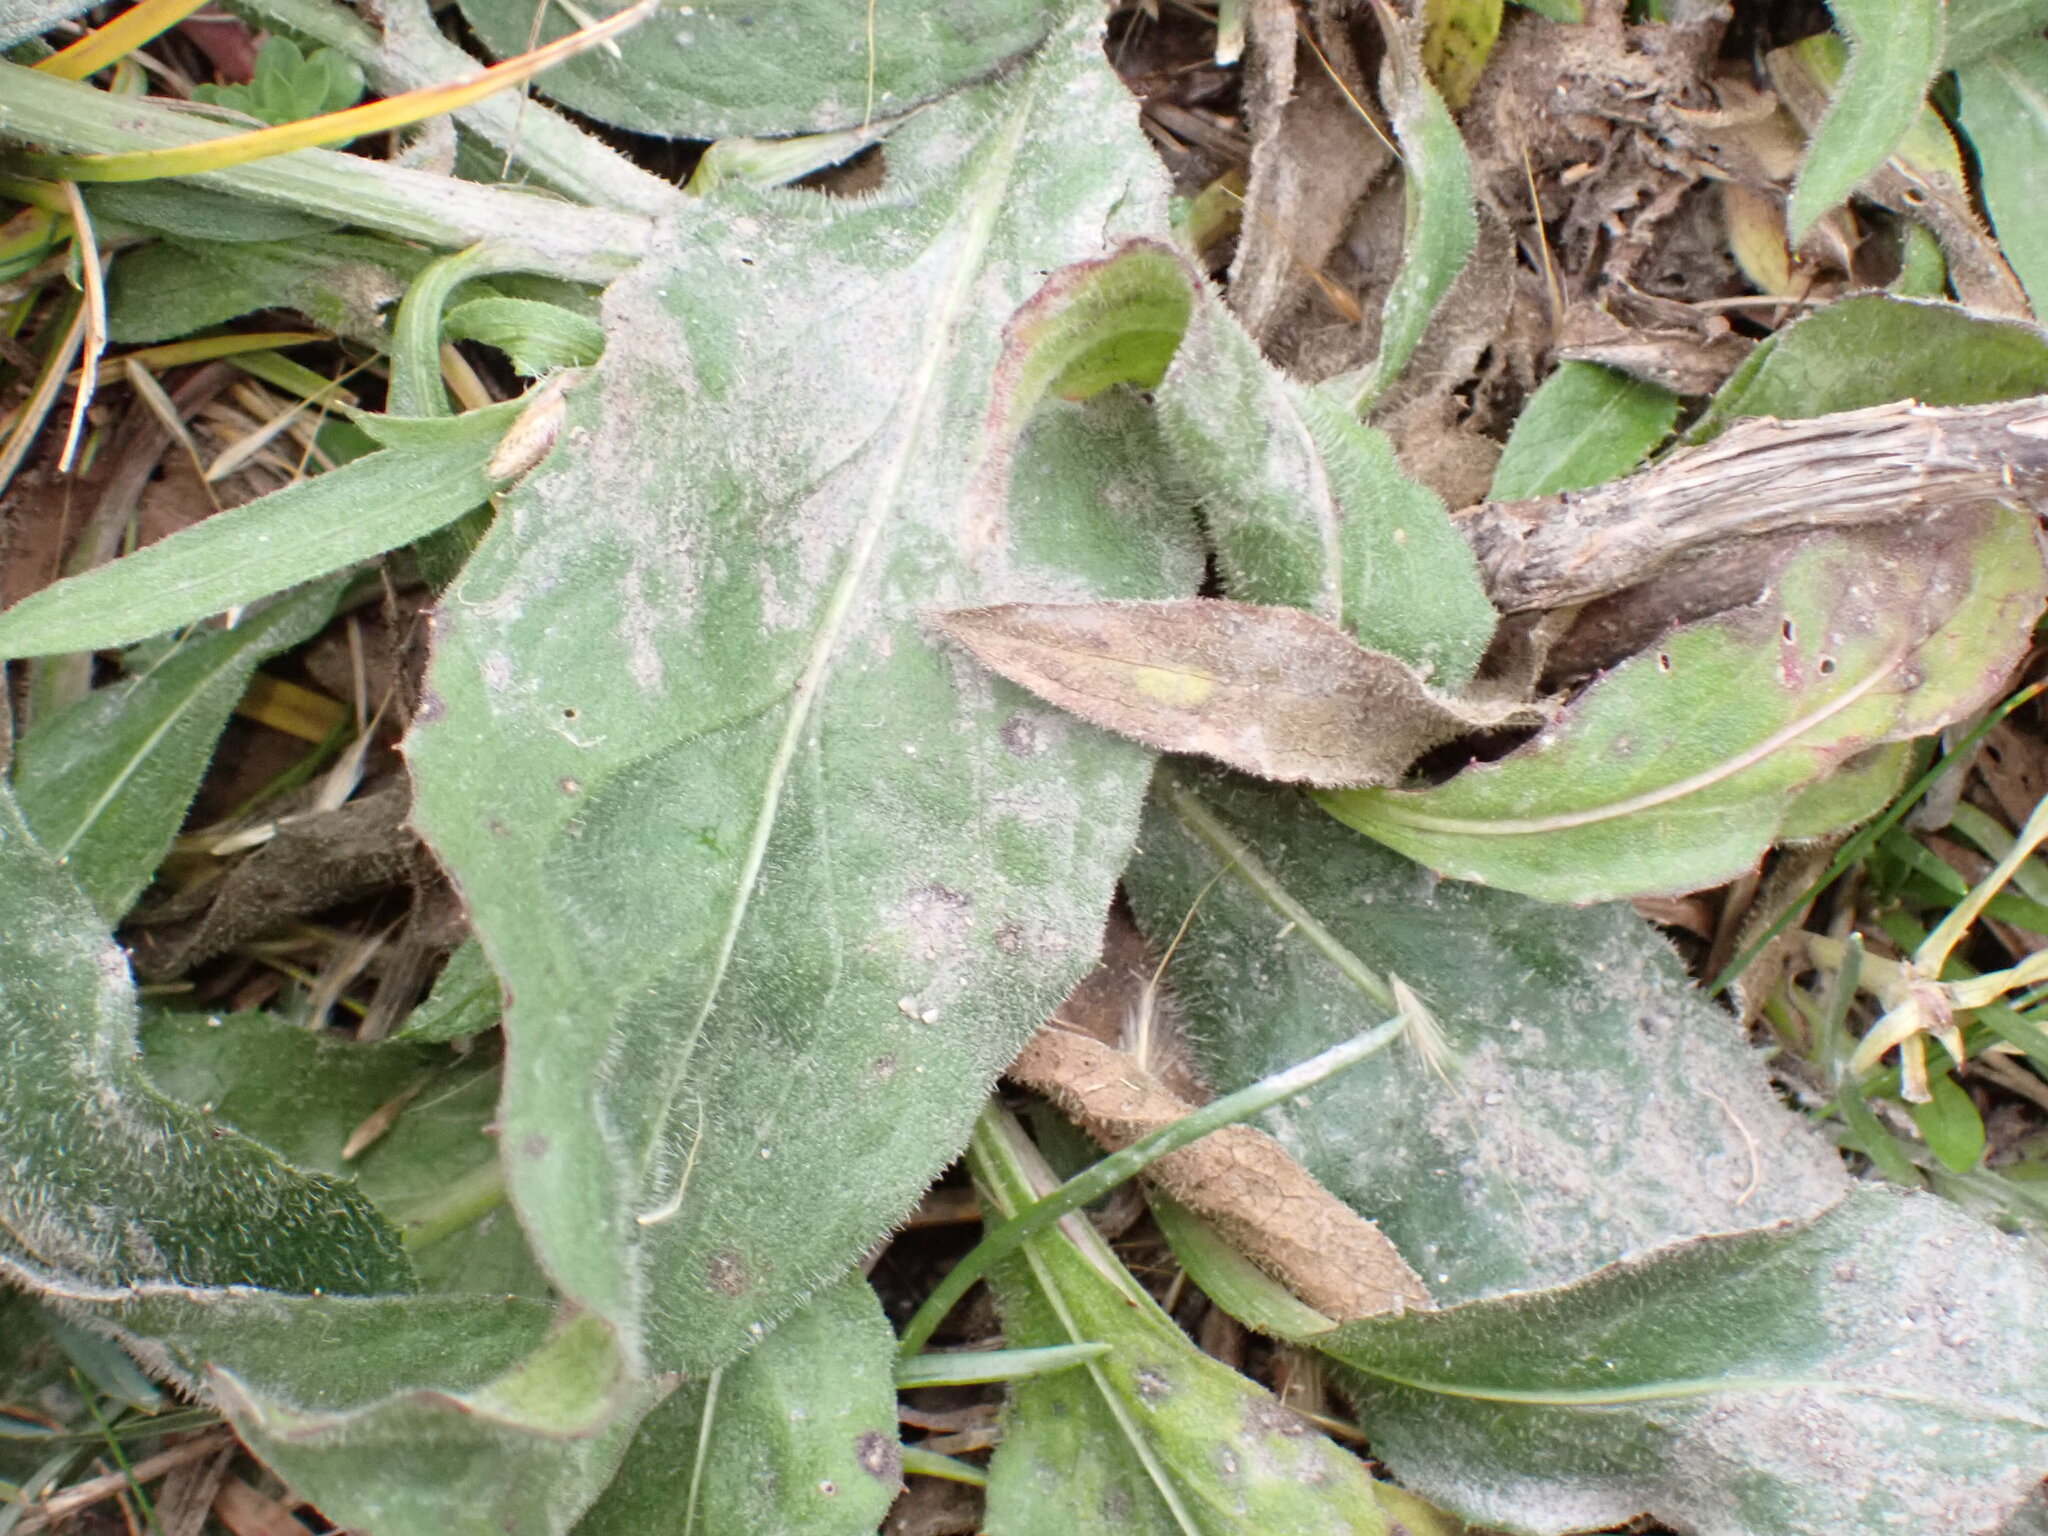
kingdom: Plantae
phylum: Tracheophyta
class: Magnoliopsida
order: Asterales
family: Asteraceae
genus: Centaurea
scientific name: Centaurea uniflora
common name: Singleflower knapweed
